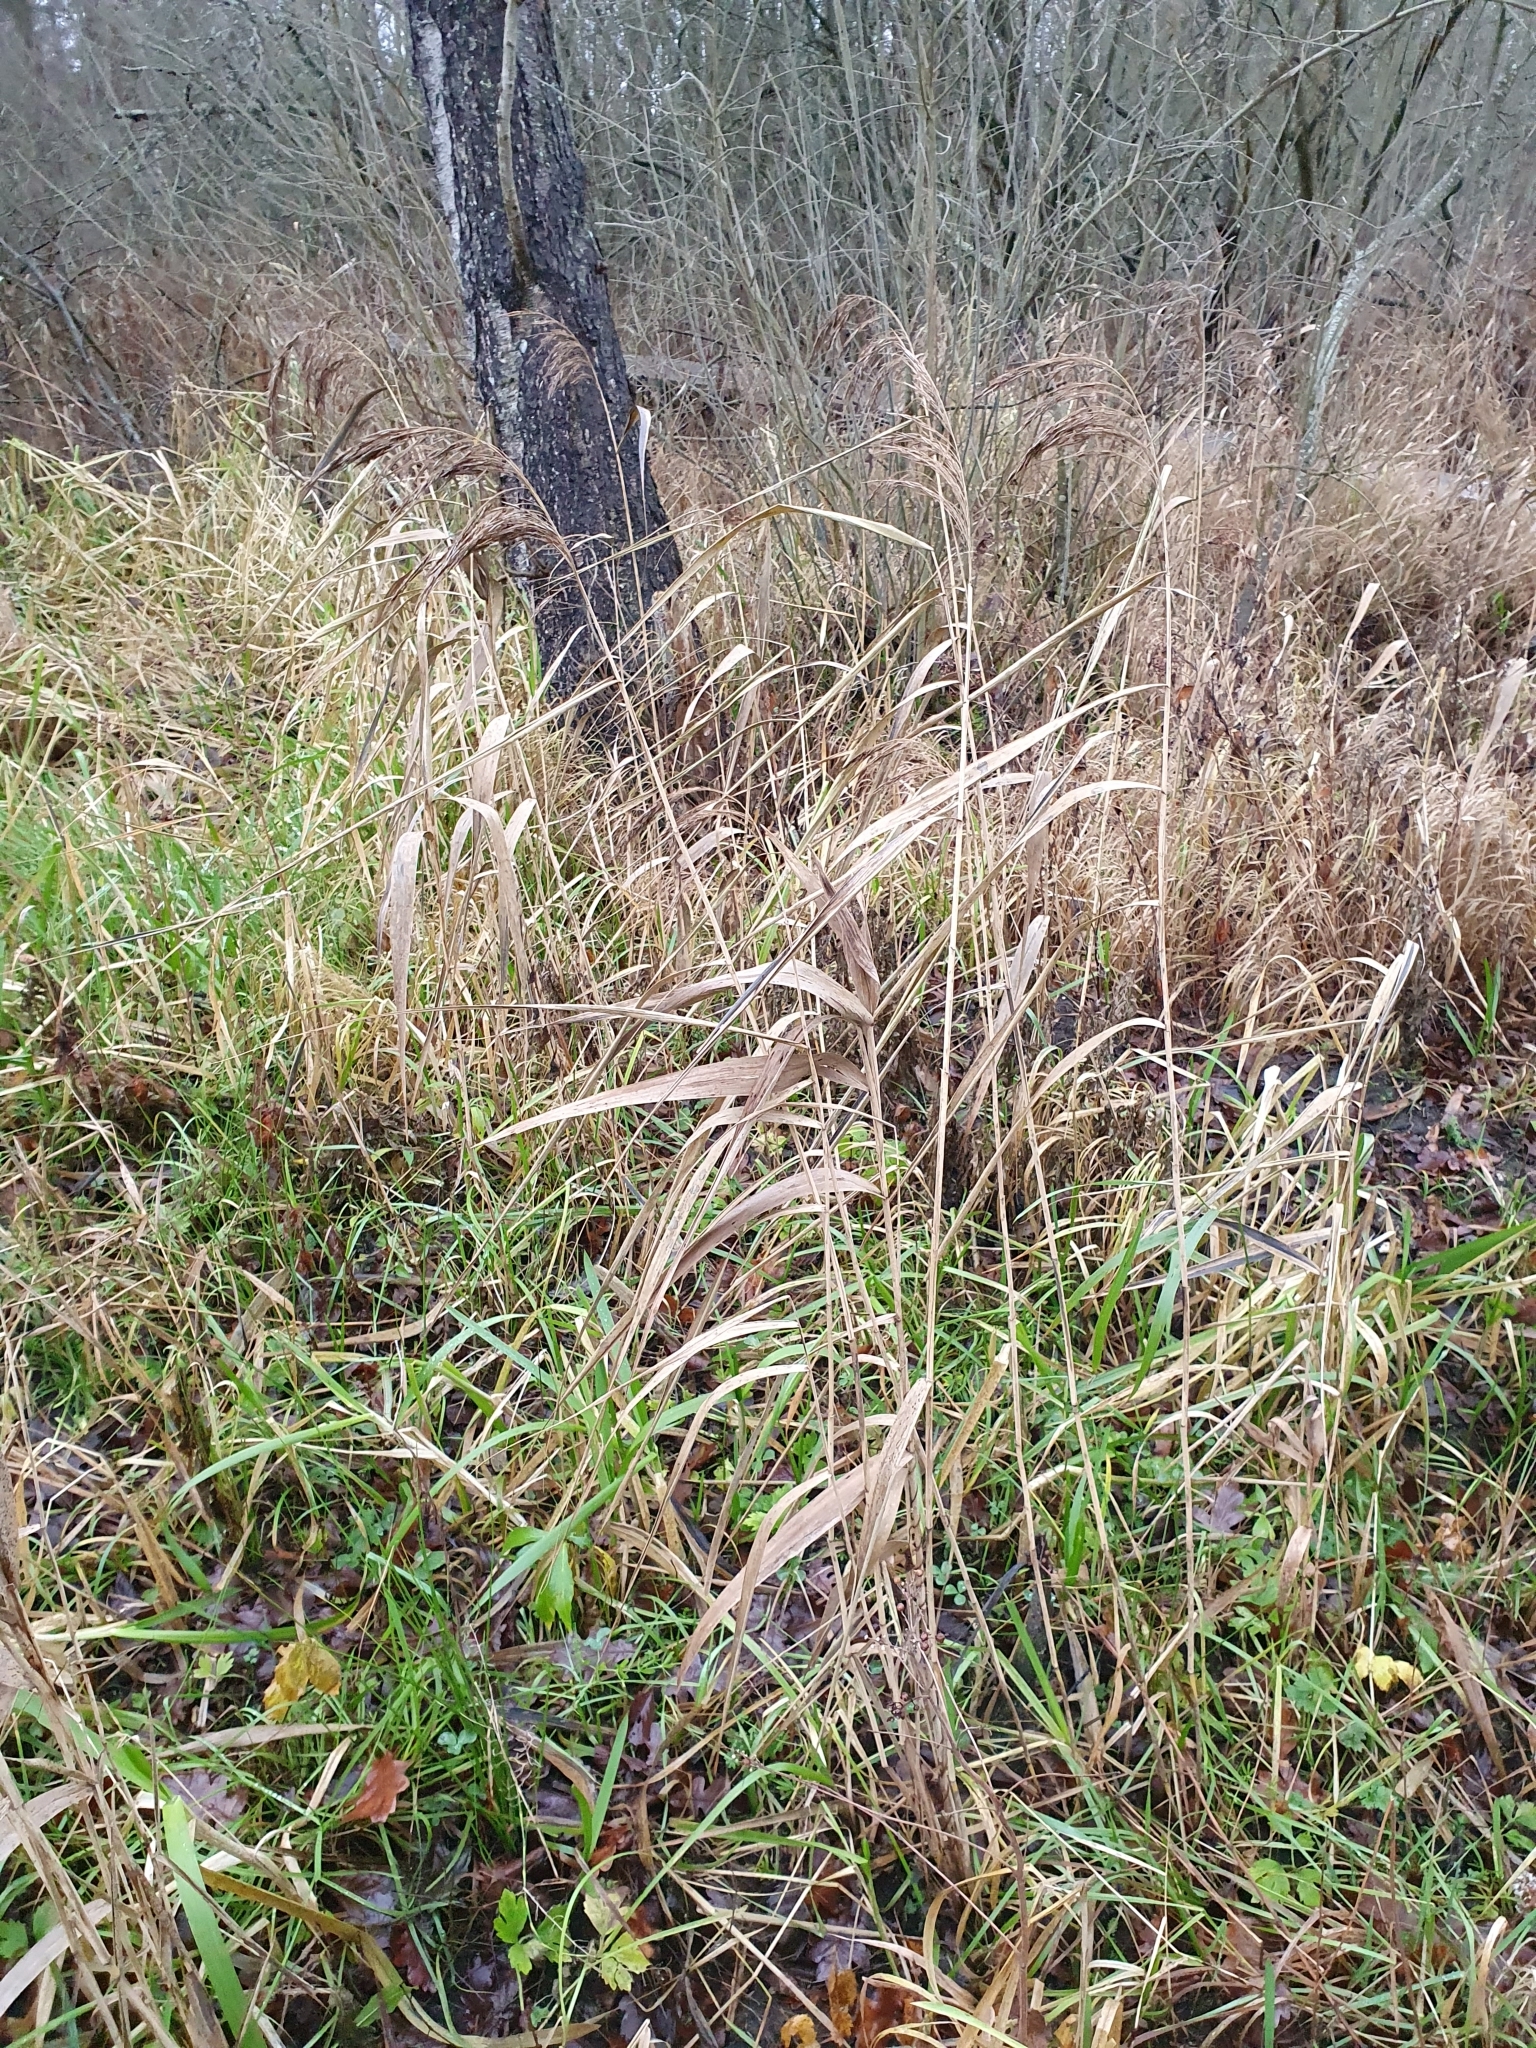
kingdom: Plantae
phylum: Tracheophyta
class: Liliopsida
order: Poales
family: Poaceae
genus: Phragmites
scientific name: Phragmites australis
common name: Common reed
